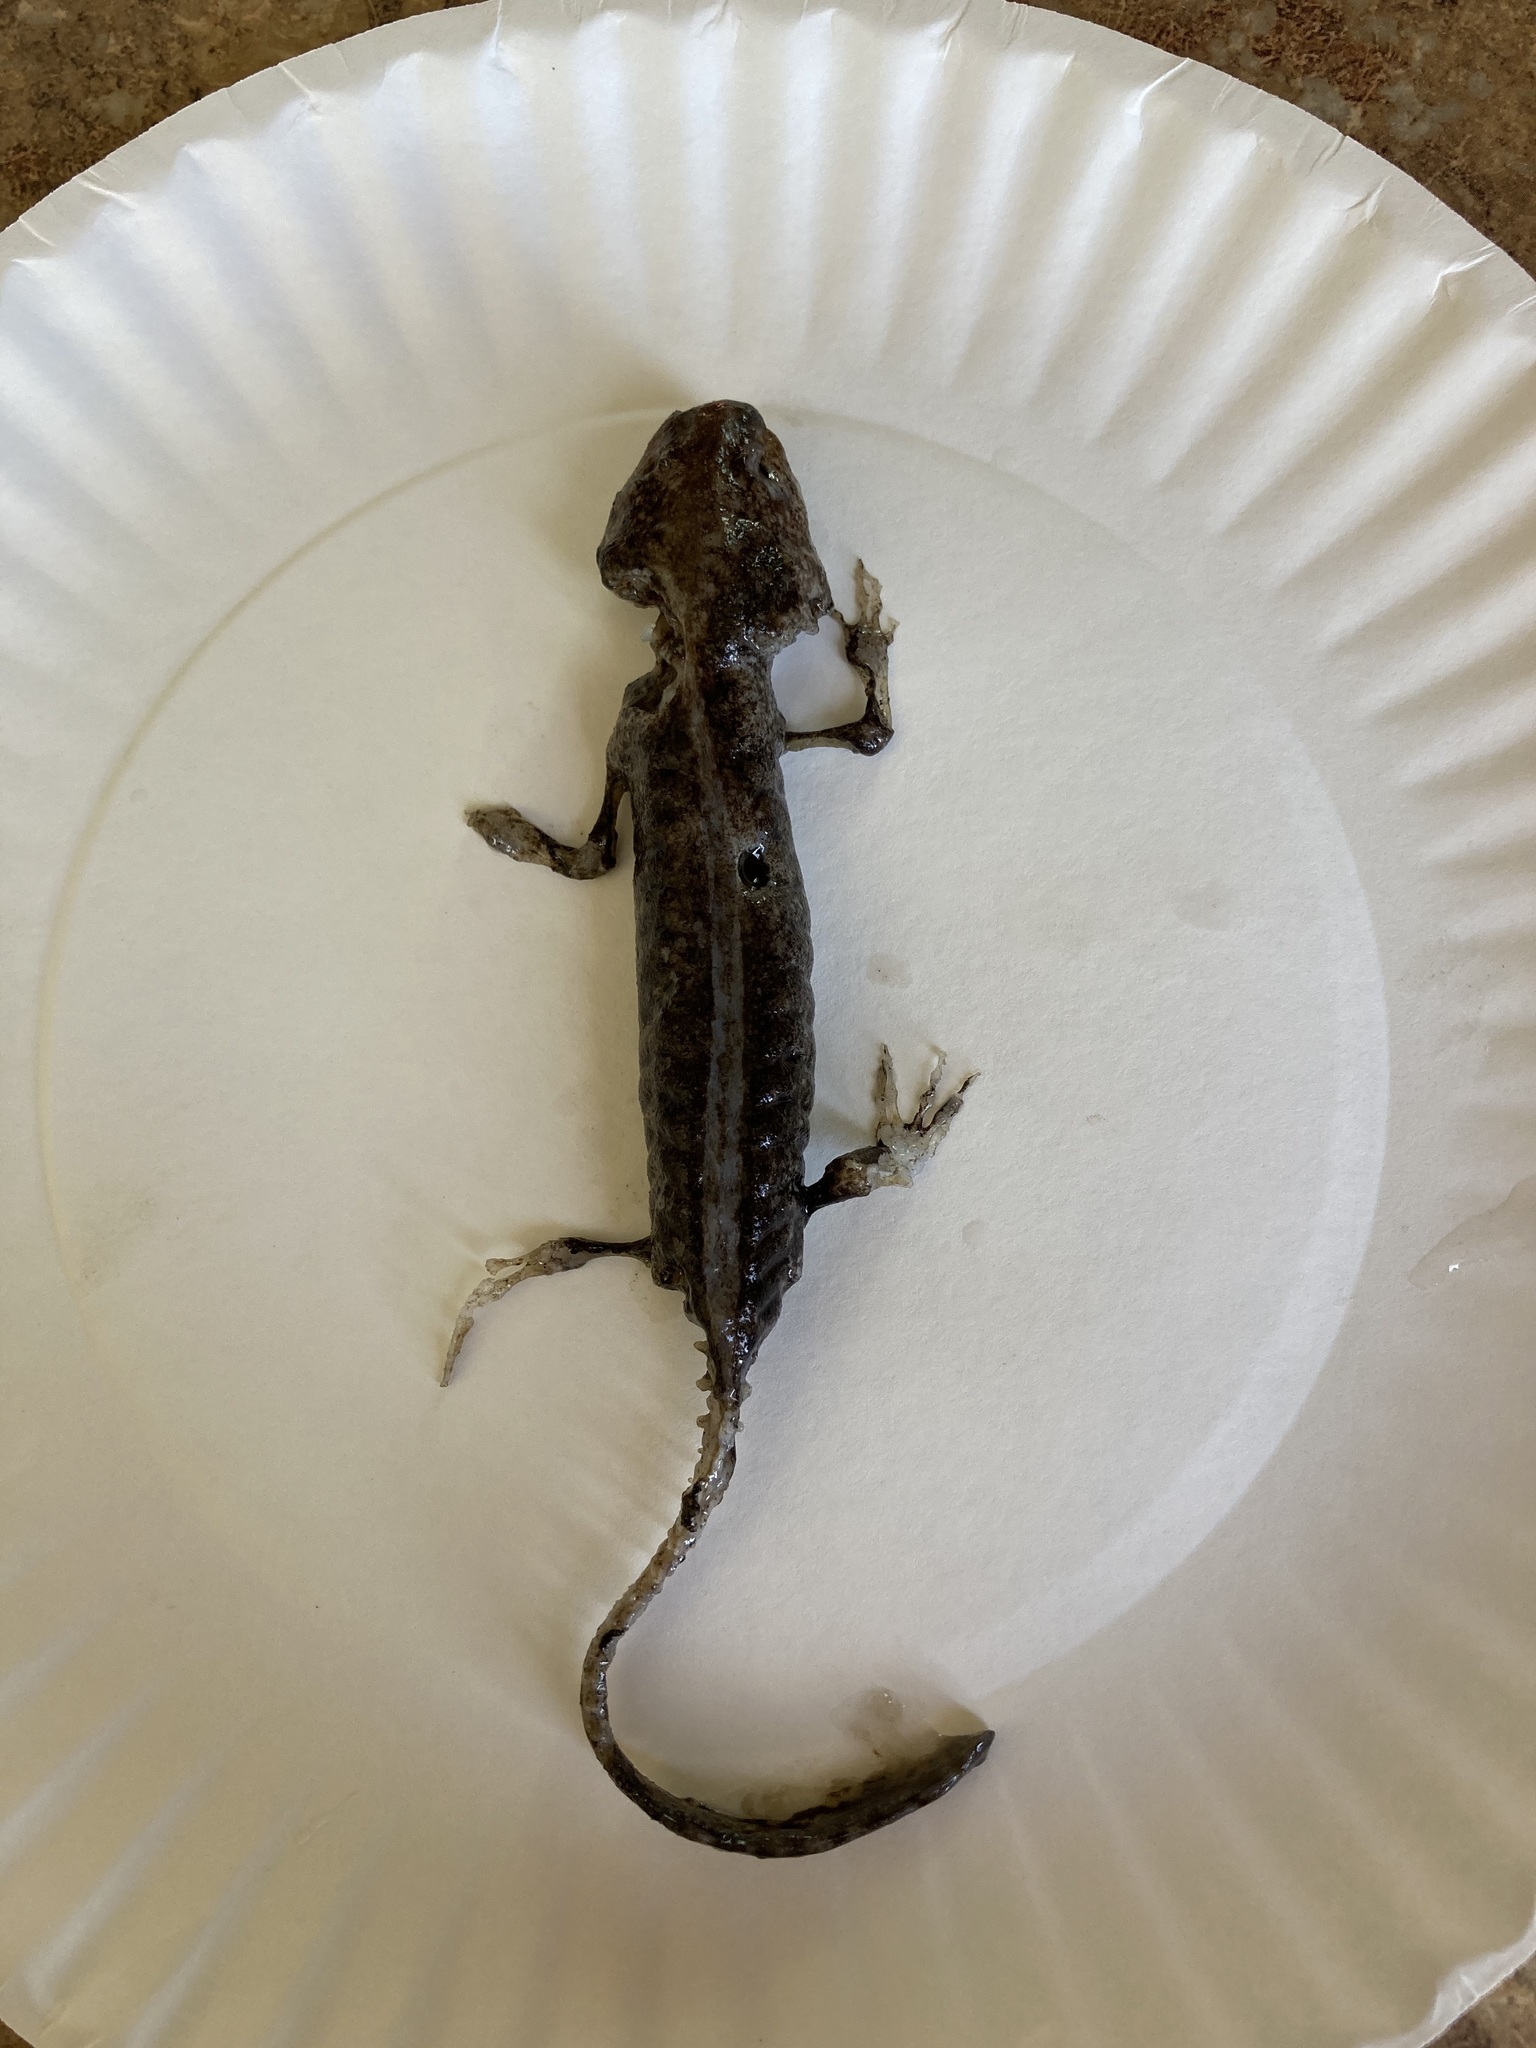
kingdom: Animalia
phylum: Chordata
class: Amphibia
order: Caudata
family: Ambystomatidae
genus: Ambystoma
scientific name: Ambystoma gracile
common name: Northwestern salamander
